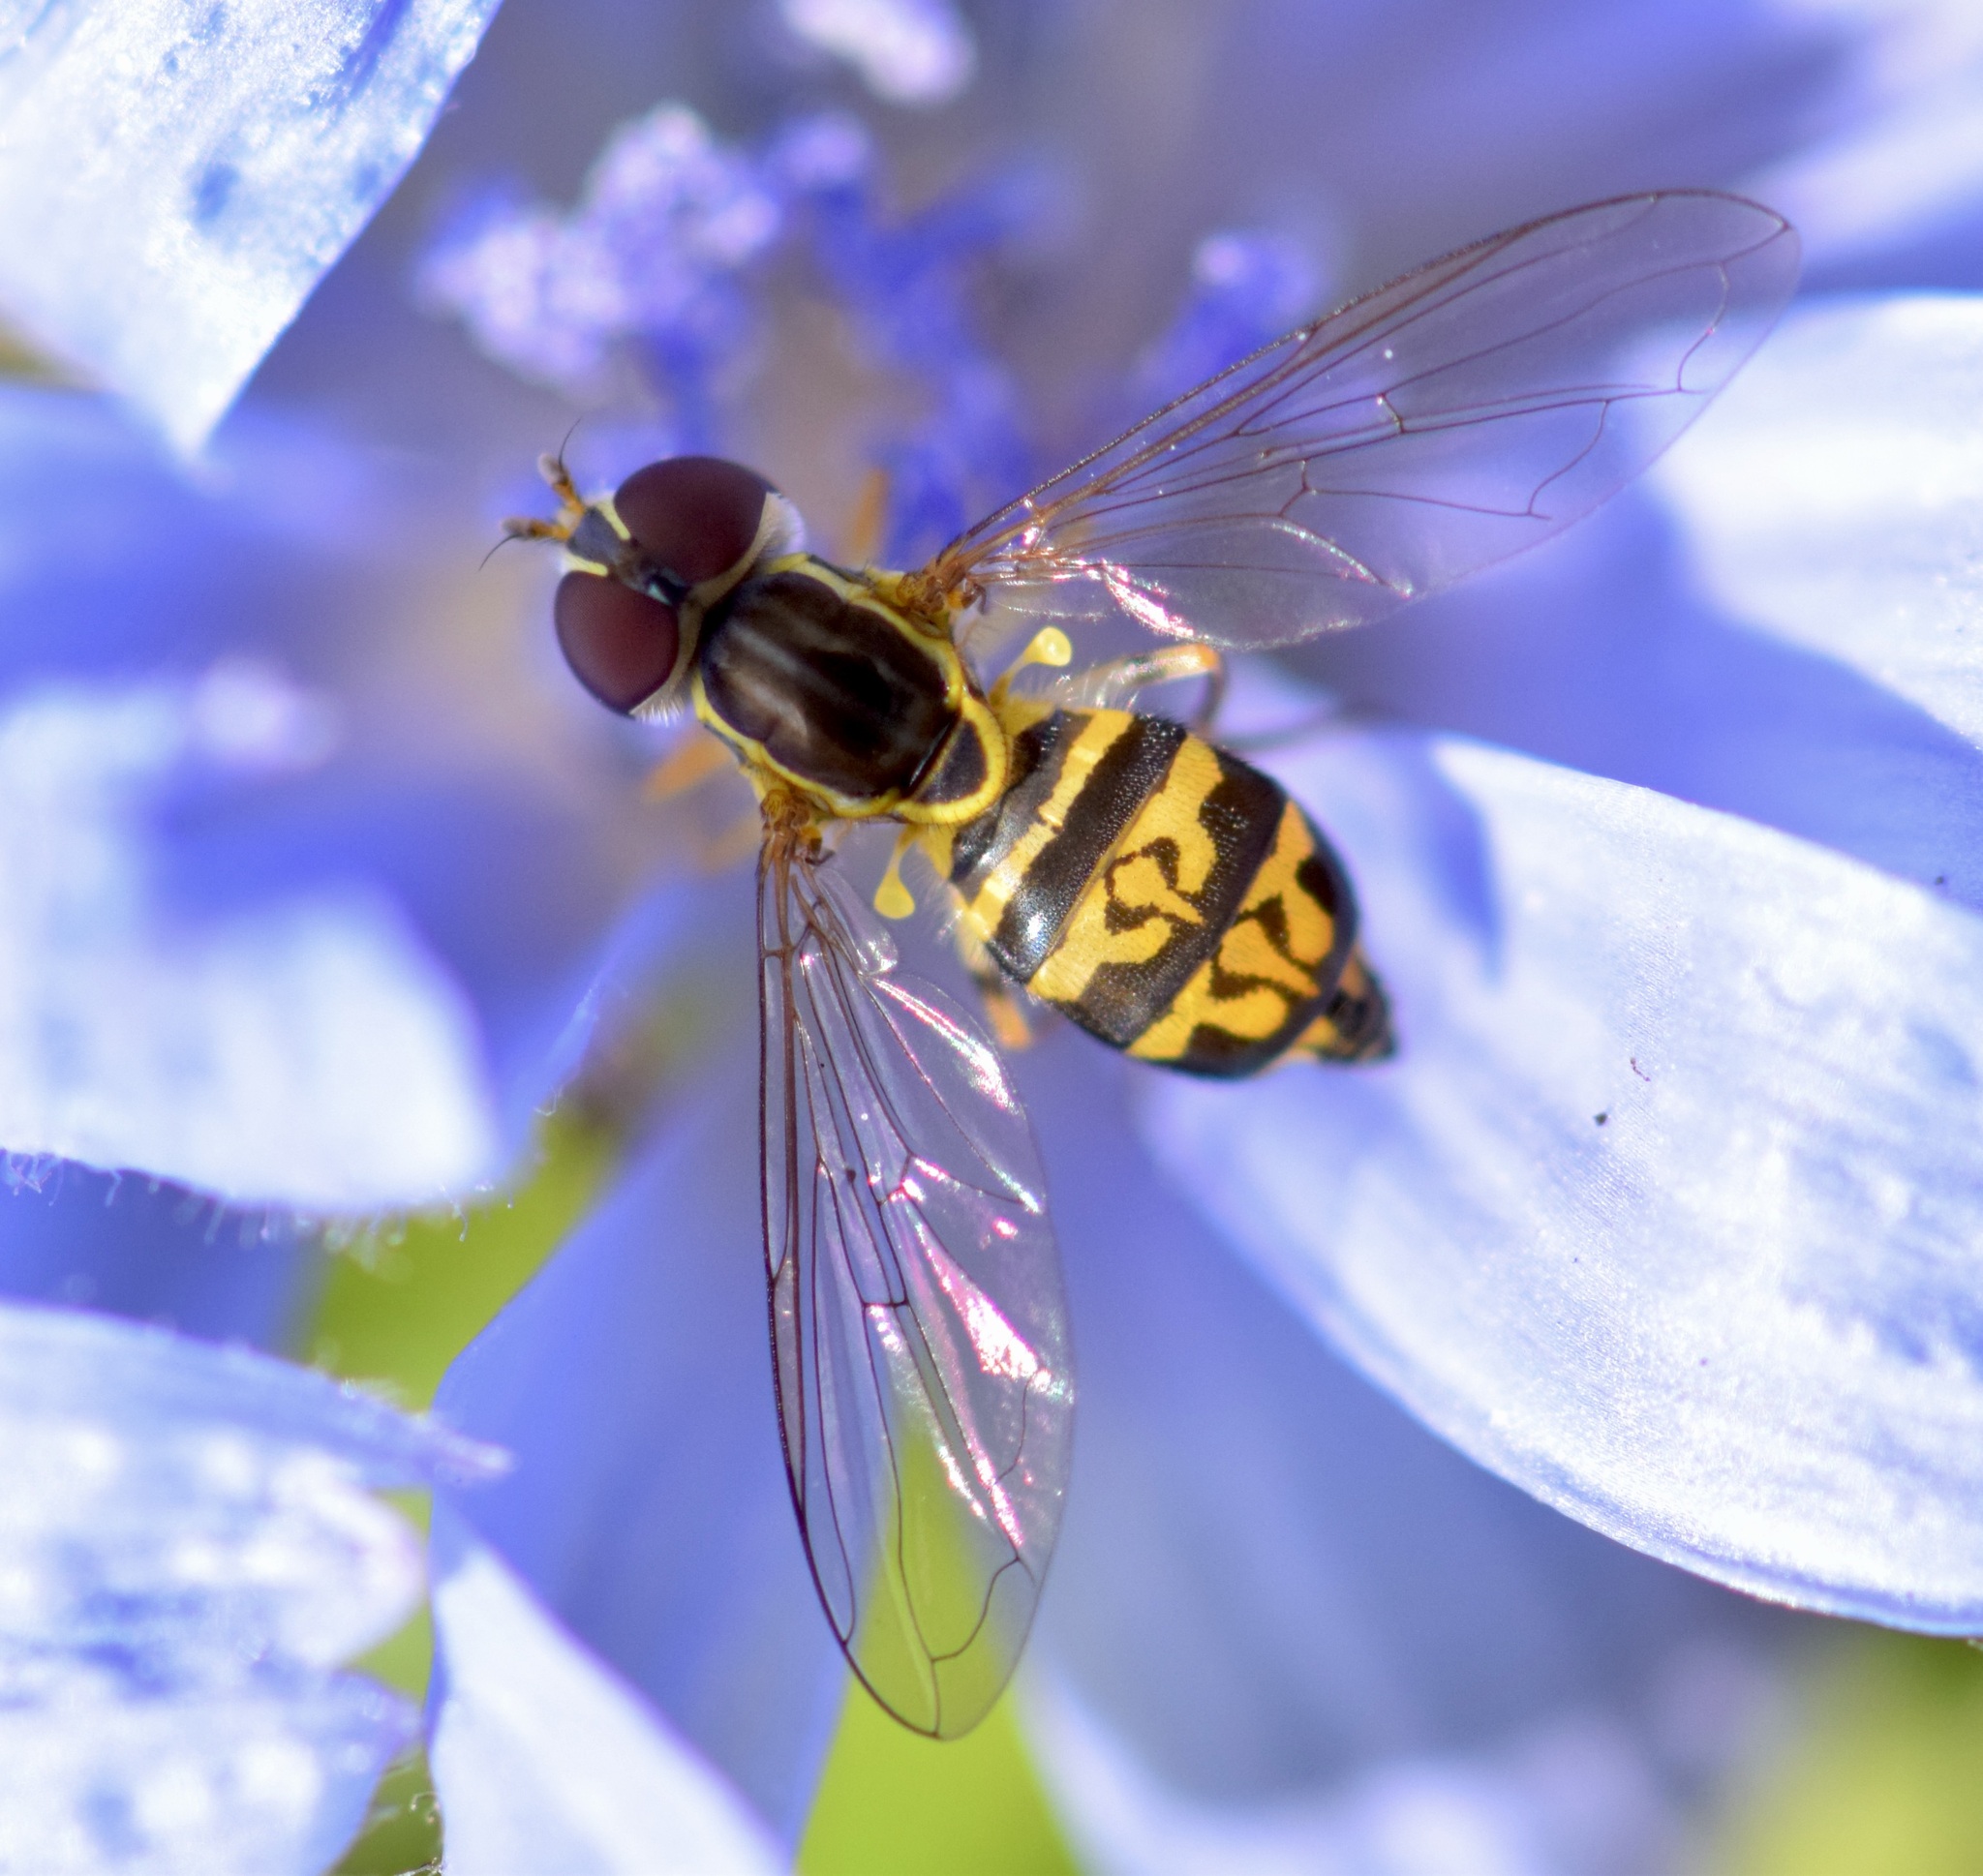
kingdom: Animalia
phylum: Arthropoda
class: Insecta
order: Diptera
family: Syrphidae
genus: Toxomerus
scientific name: Toxomerus geminatus
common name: Eastern calligrapher
